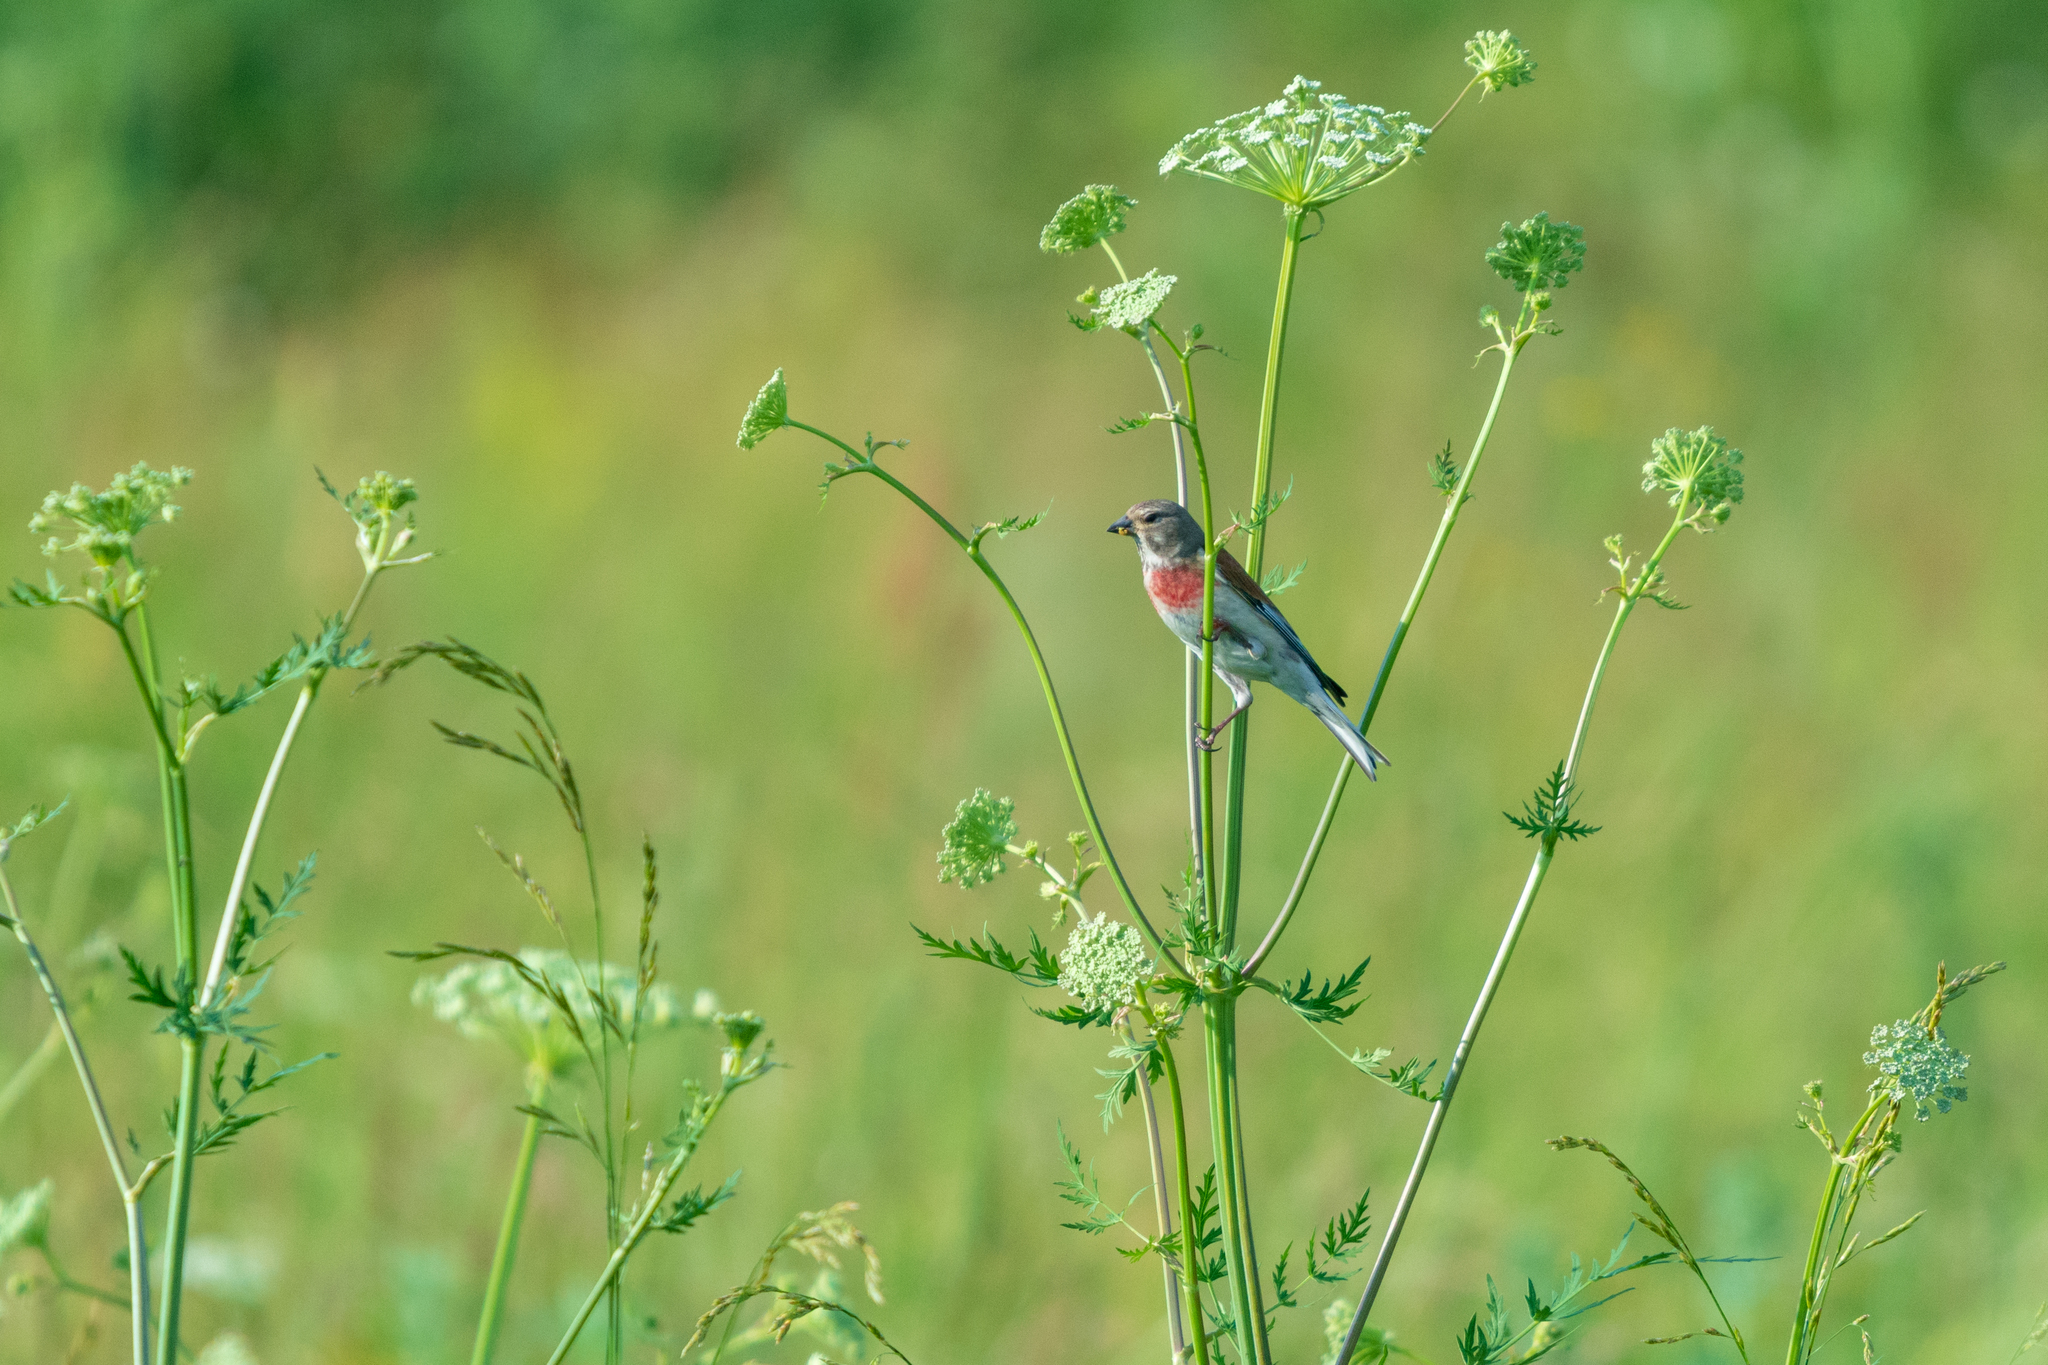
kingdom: Animalia
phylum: Chordata
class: Aves
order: Passeriformes
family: Fringillidae
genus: Linaria
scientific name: Linaria cannabina
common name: Common linnet
